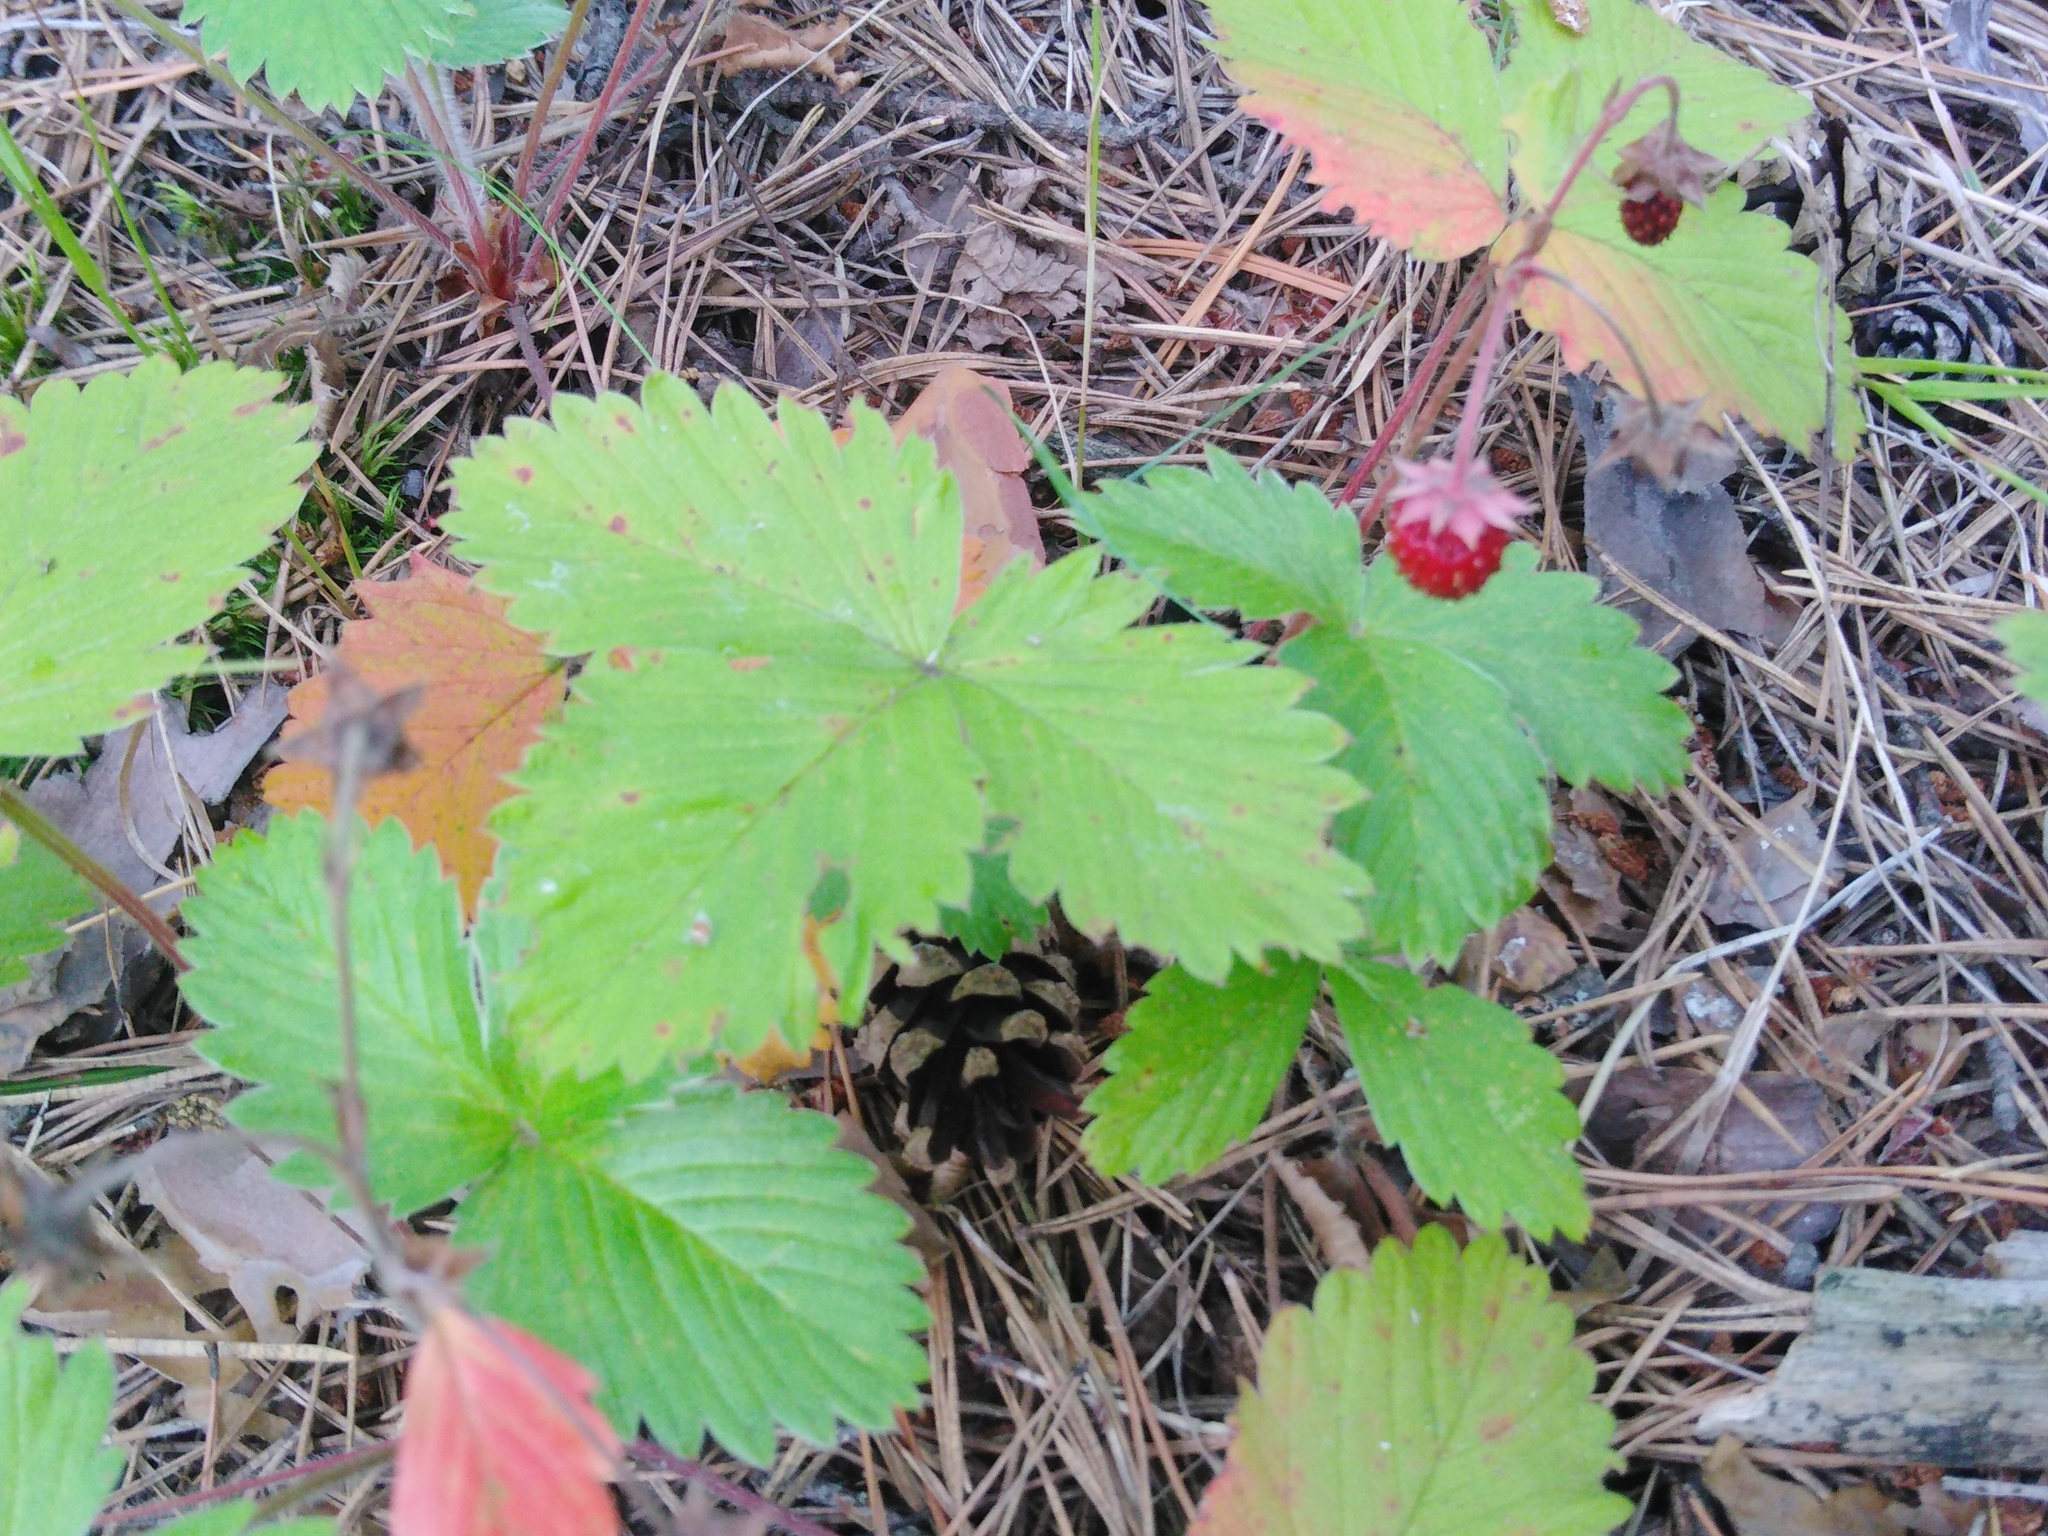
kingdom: Plantae
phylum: Tracheophyta
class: Magnoliopsida
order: Rosales
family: Rosaceae
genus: Fragaria
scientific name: Fragaria vesca
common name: Wild strawberry
